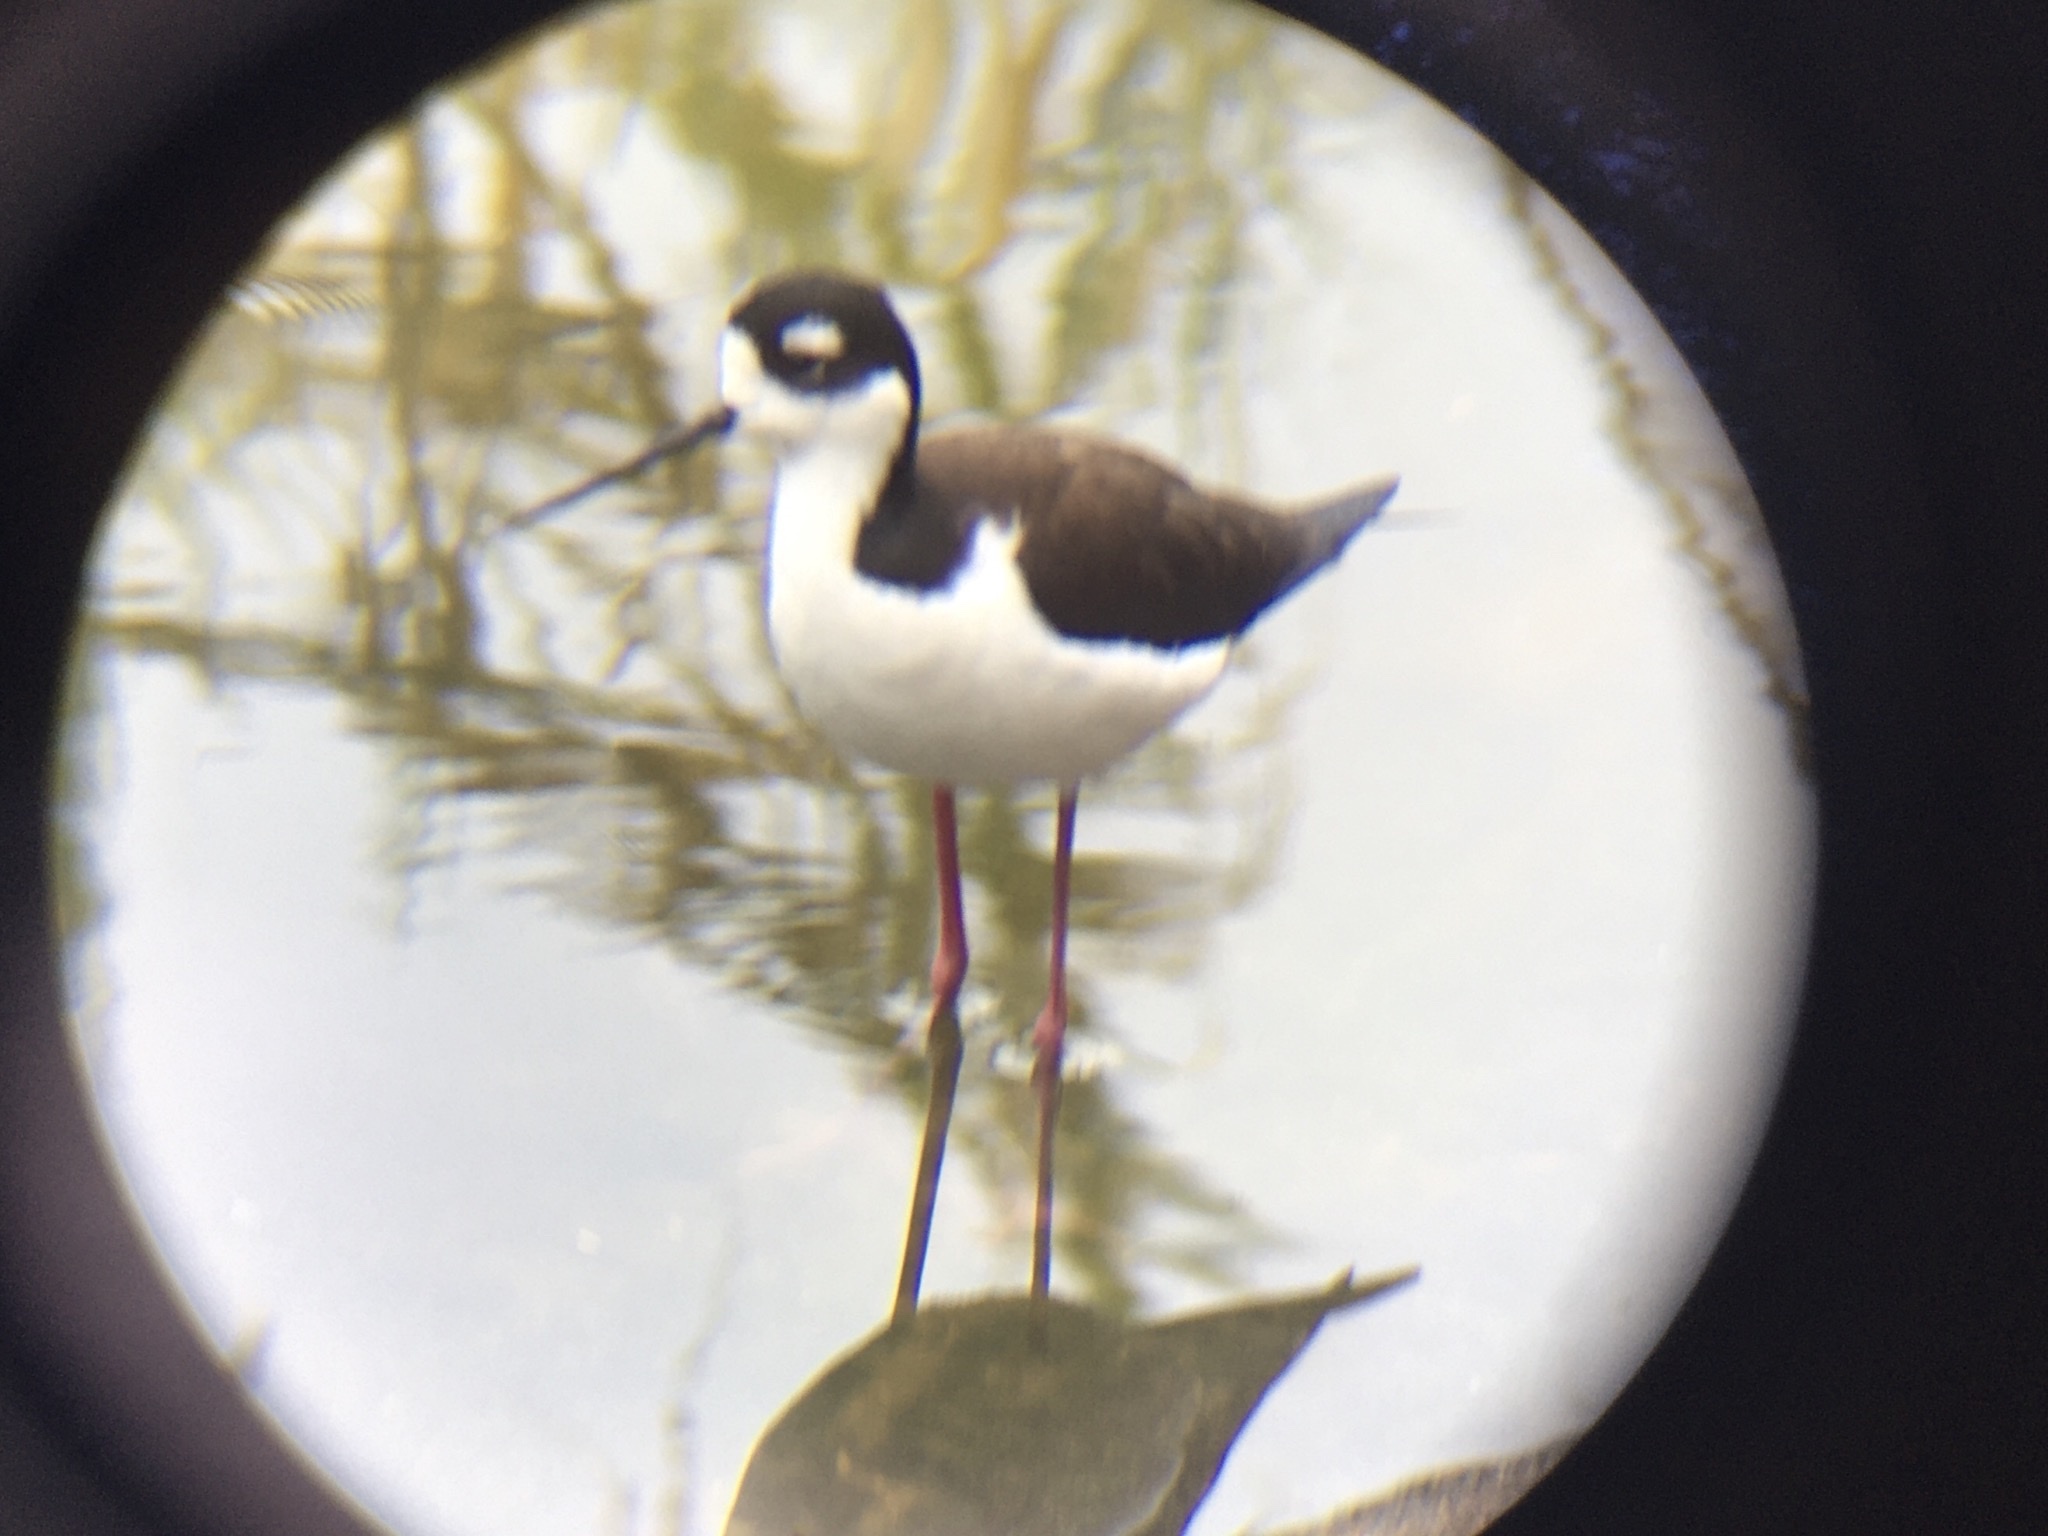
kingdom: Animalia
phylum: Chordata
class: Aves
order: Charadriiformes
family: Recurvirostridae
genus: Himantopus
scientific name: Himantopus mexicanus
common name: Black-necked stilt
